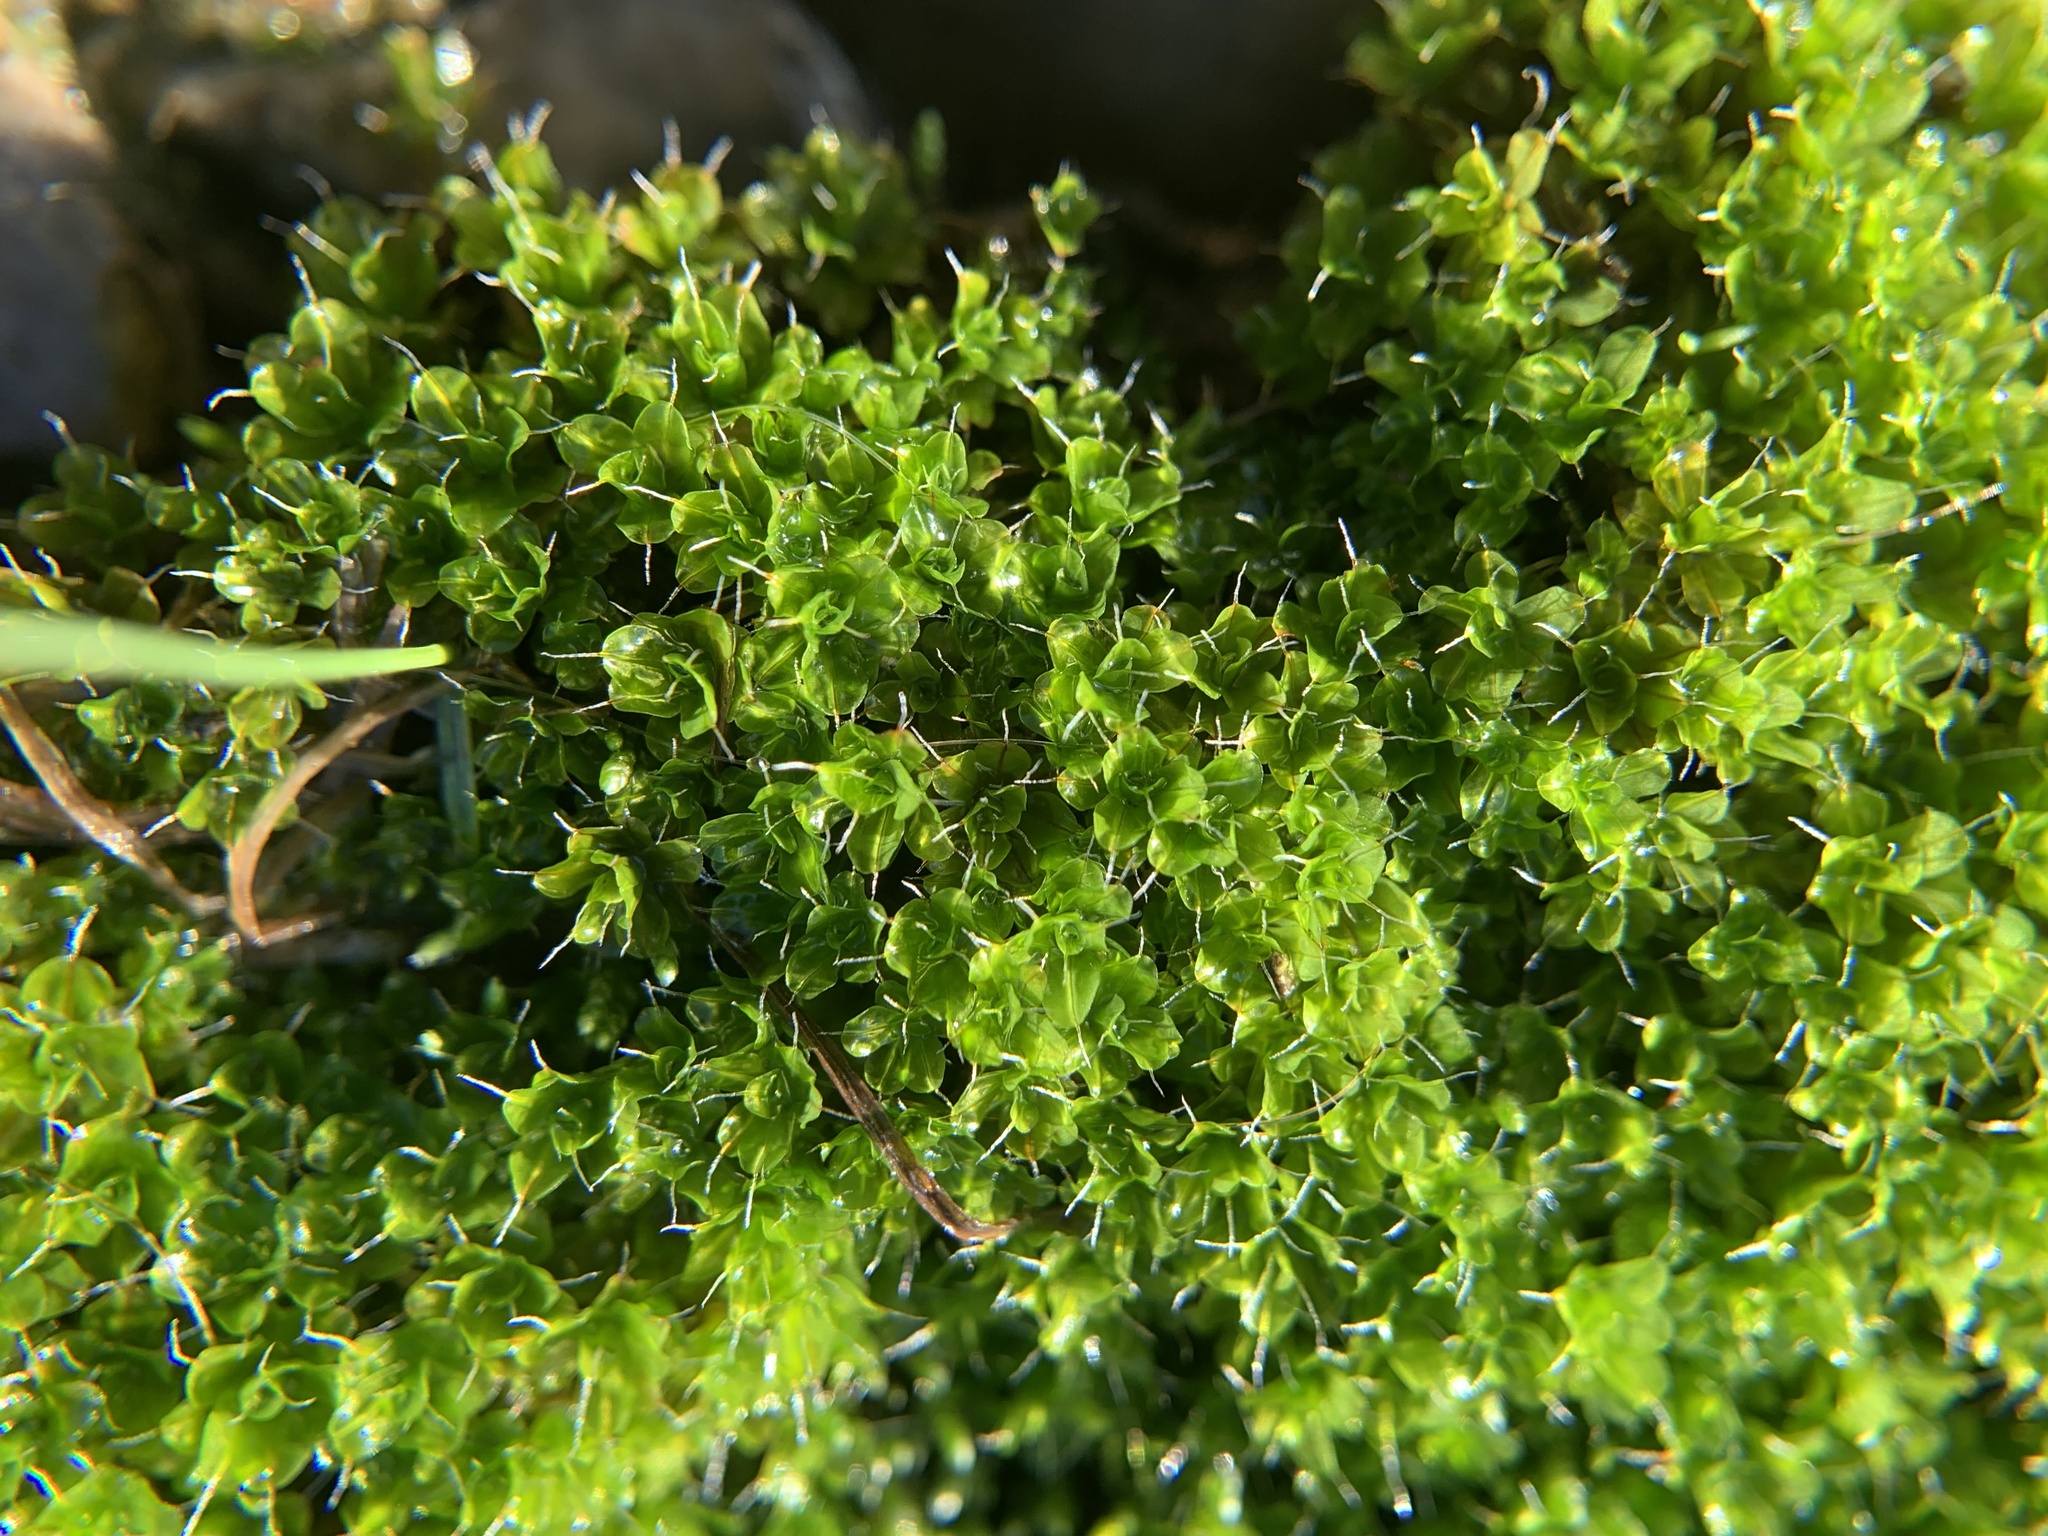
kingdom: Plantae
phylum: Bryophyta
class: Bryopsida
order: Pottiales
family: Pottiaceae
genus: Syntrichia
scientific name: Syntrichia virescens
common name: Lesser screw-moss
